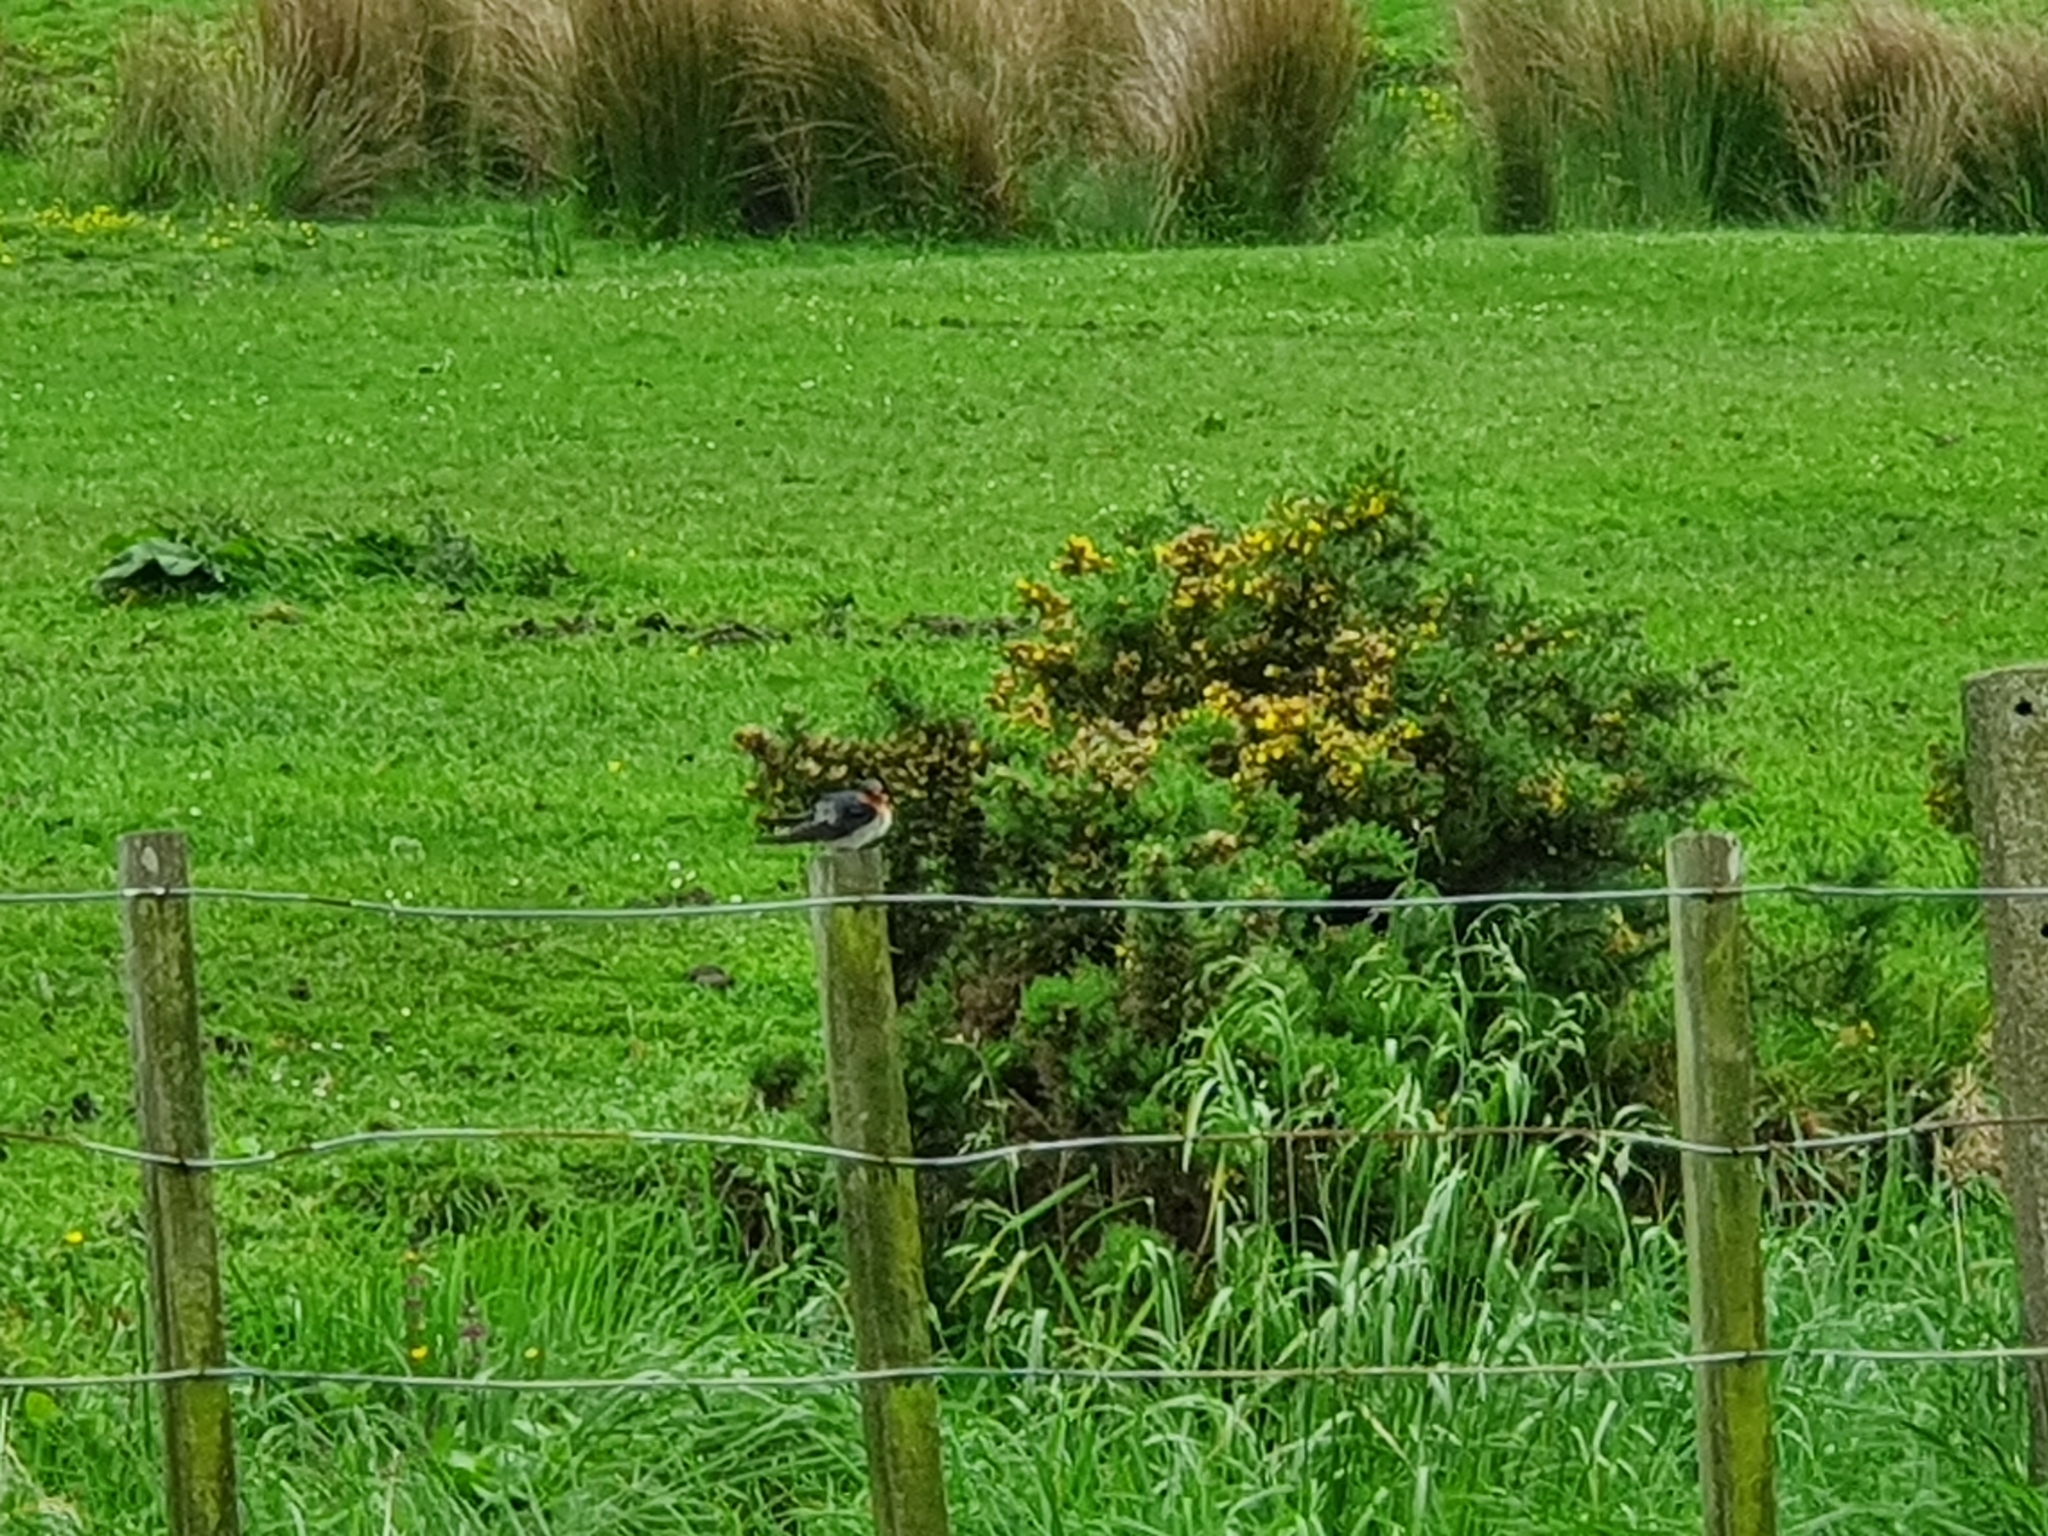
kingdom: Animalia
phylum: Chordata
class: Aves
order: Passeriformes
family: Hirundinidae
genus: Hirundo
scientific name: Hirundo neoxena
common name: Welcome swallow
